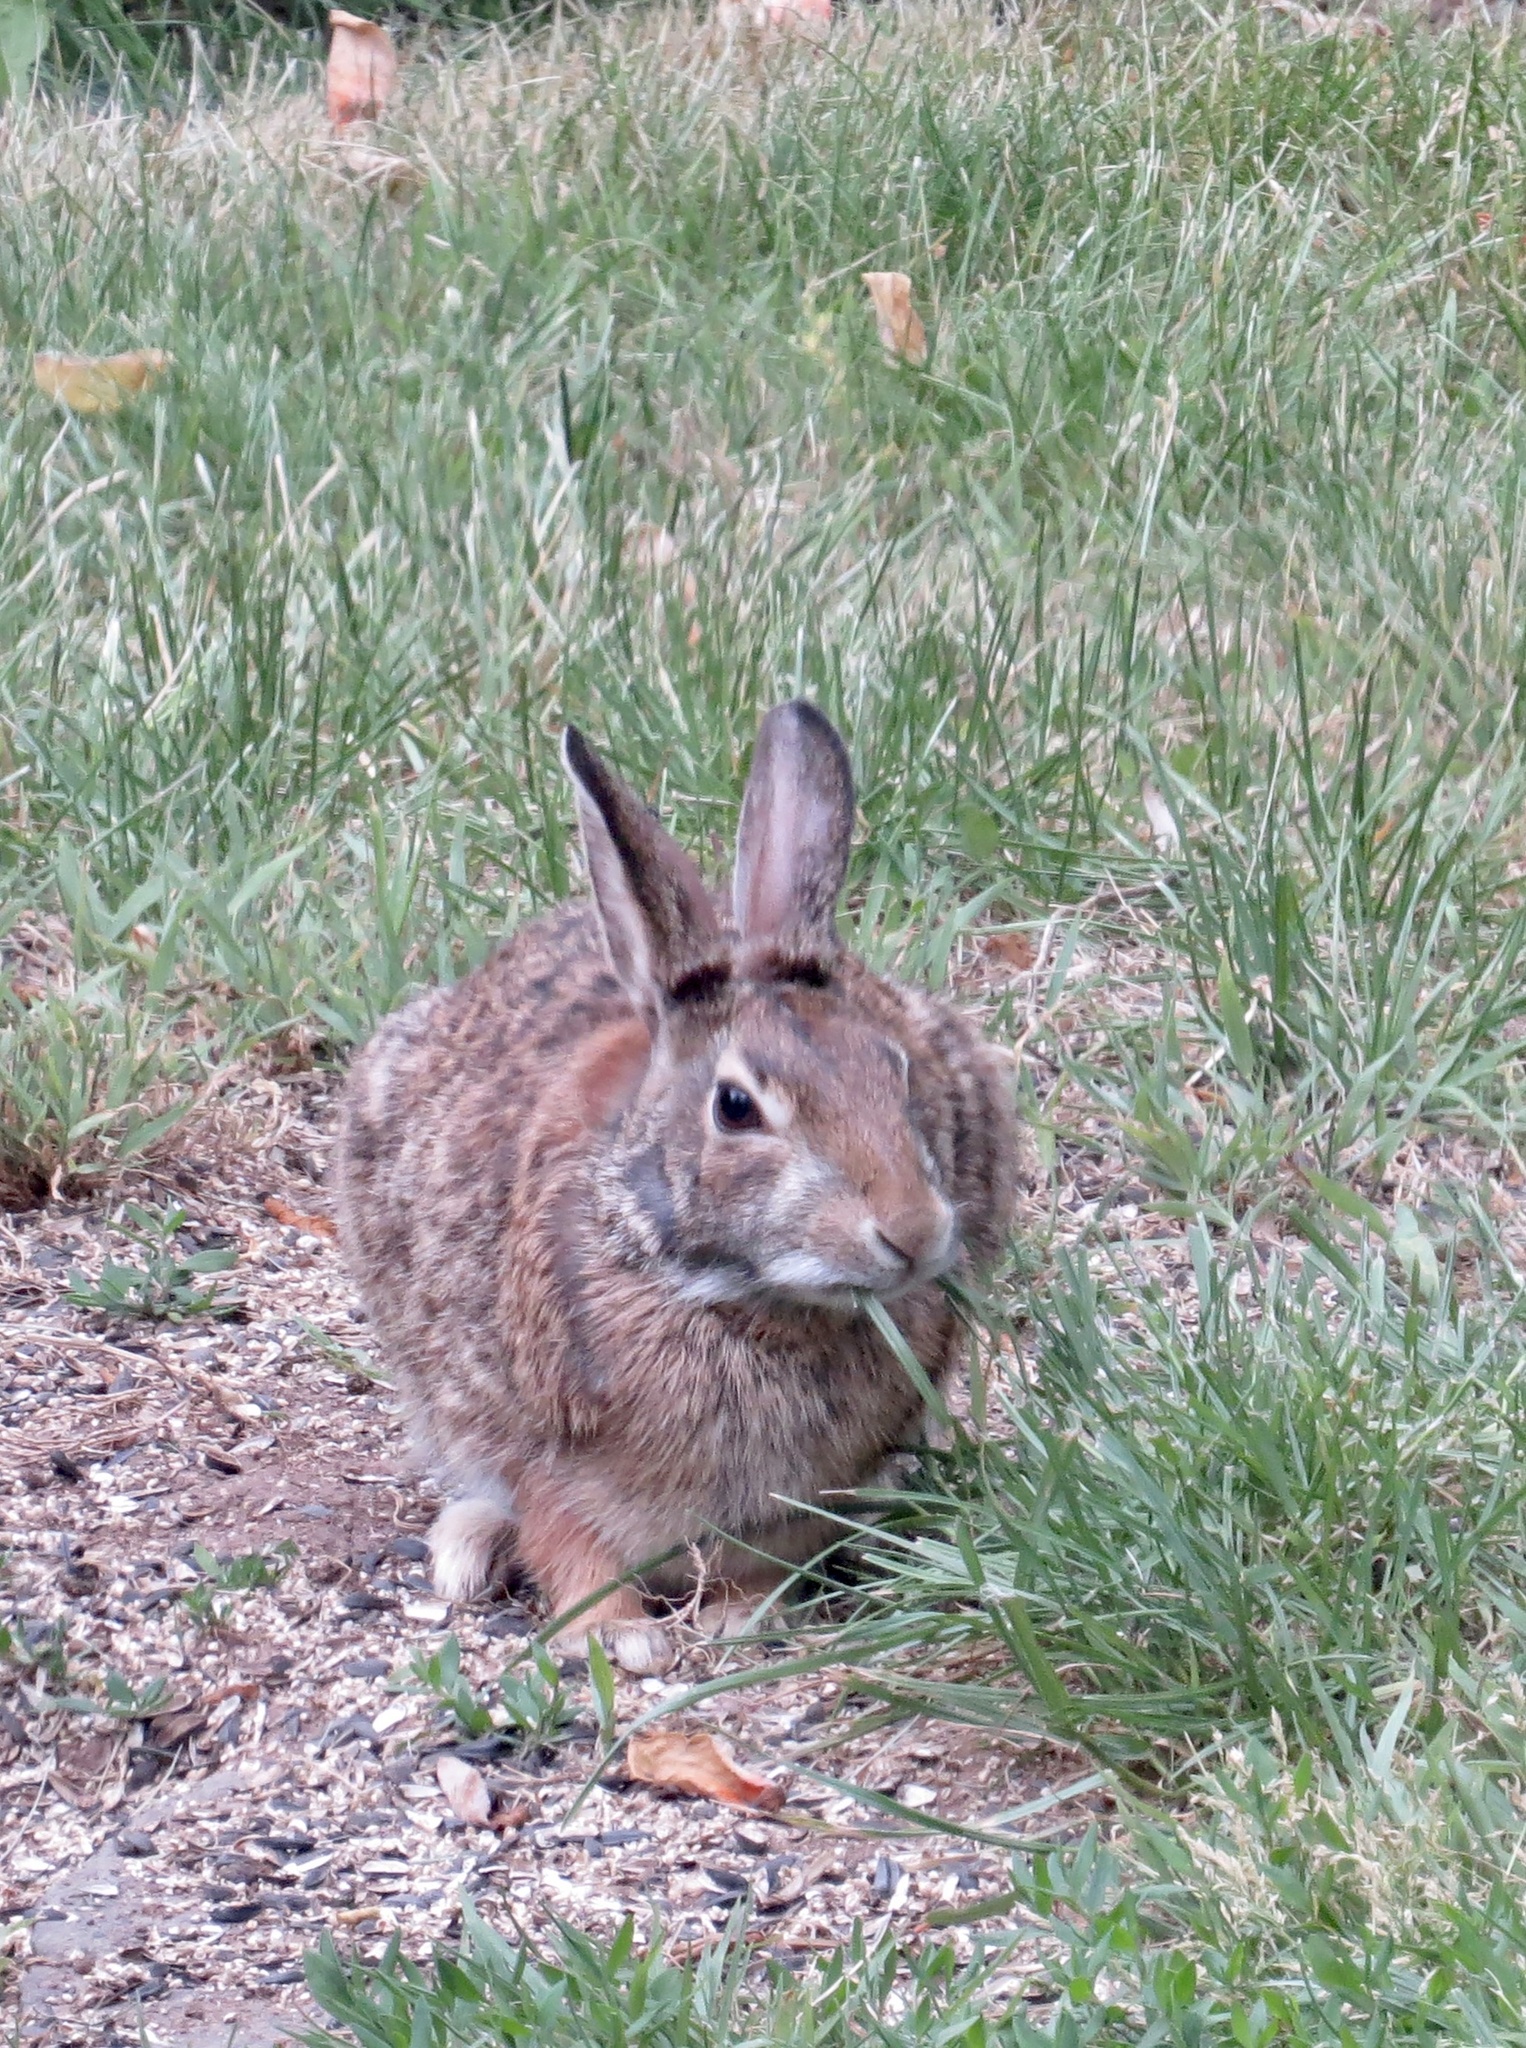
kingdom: Animalia
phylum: Chordata
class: Mammalia
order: Lagomorpha
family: Leporidae
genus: Sylvilagus
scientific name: Sylvilagus floridanus
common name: Eastern cottontail
